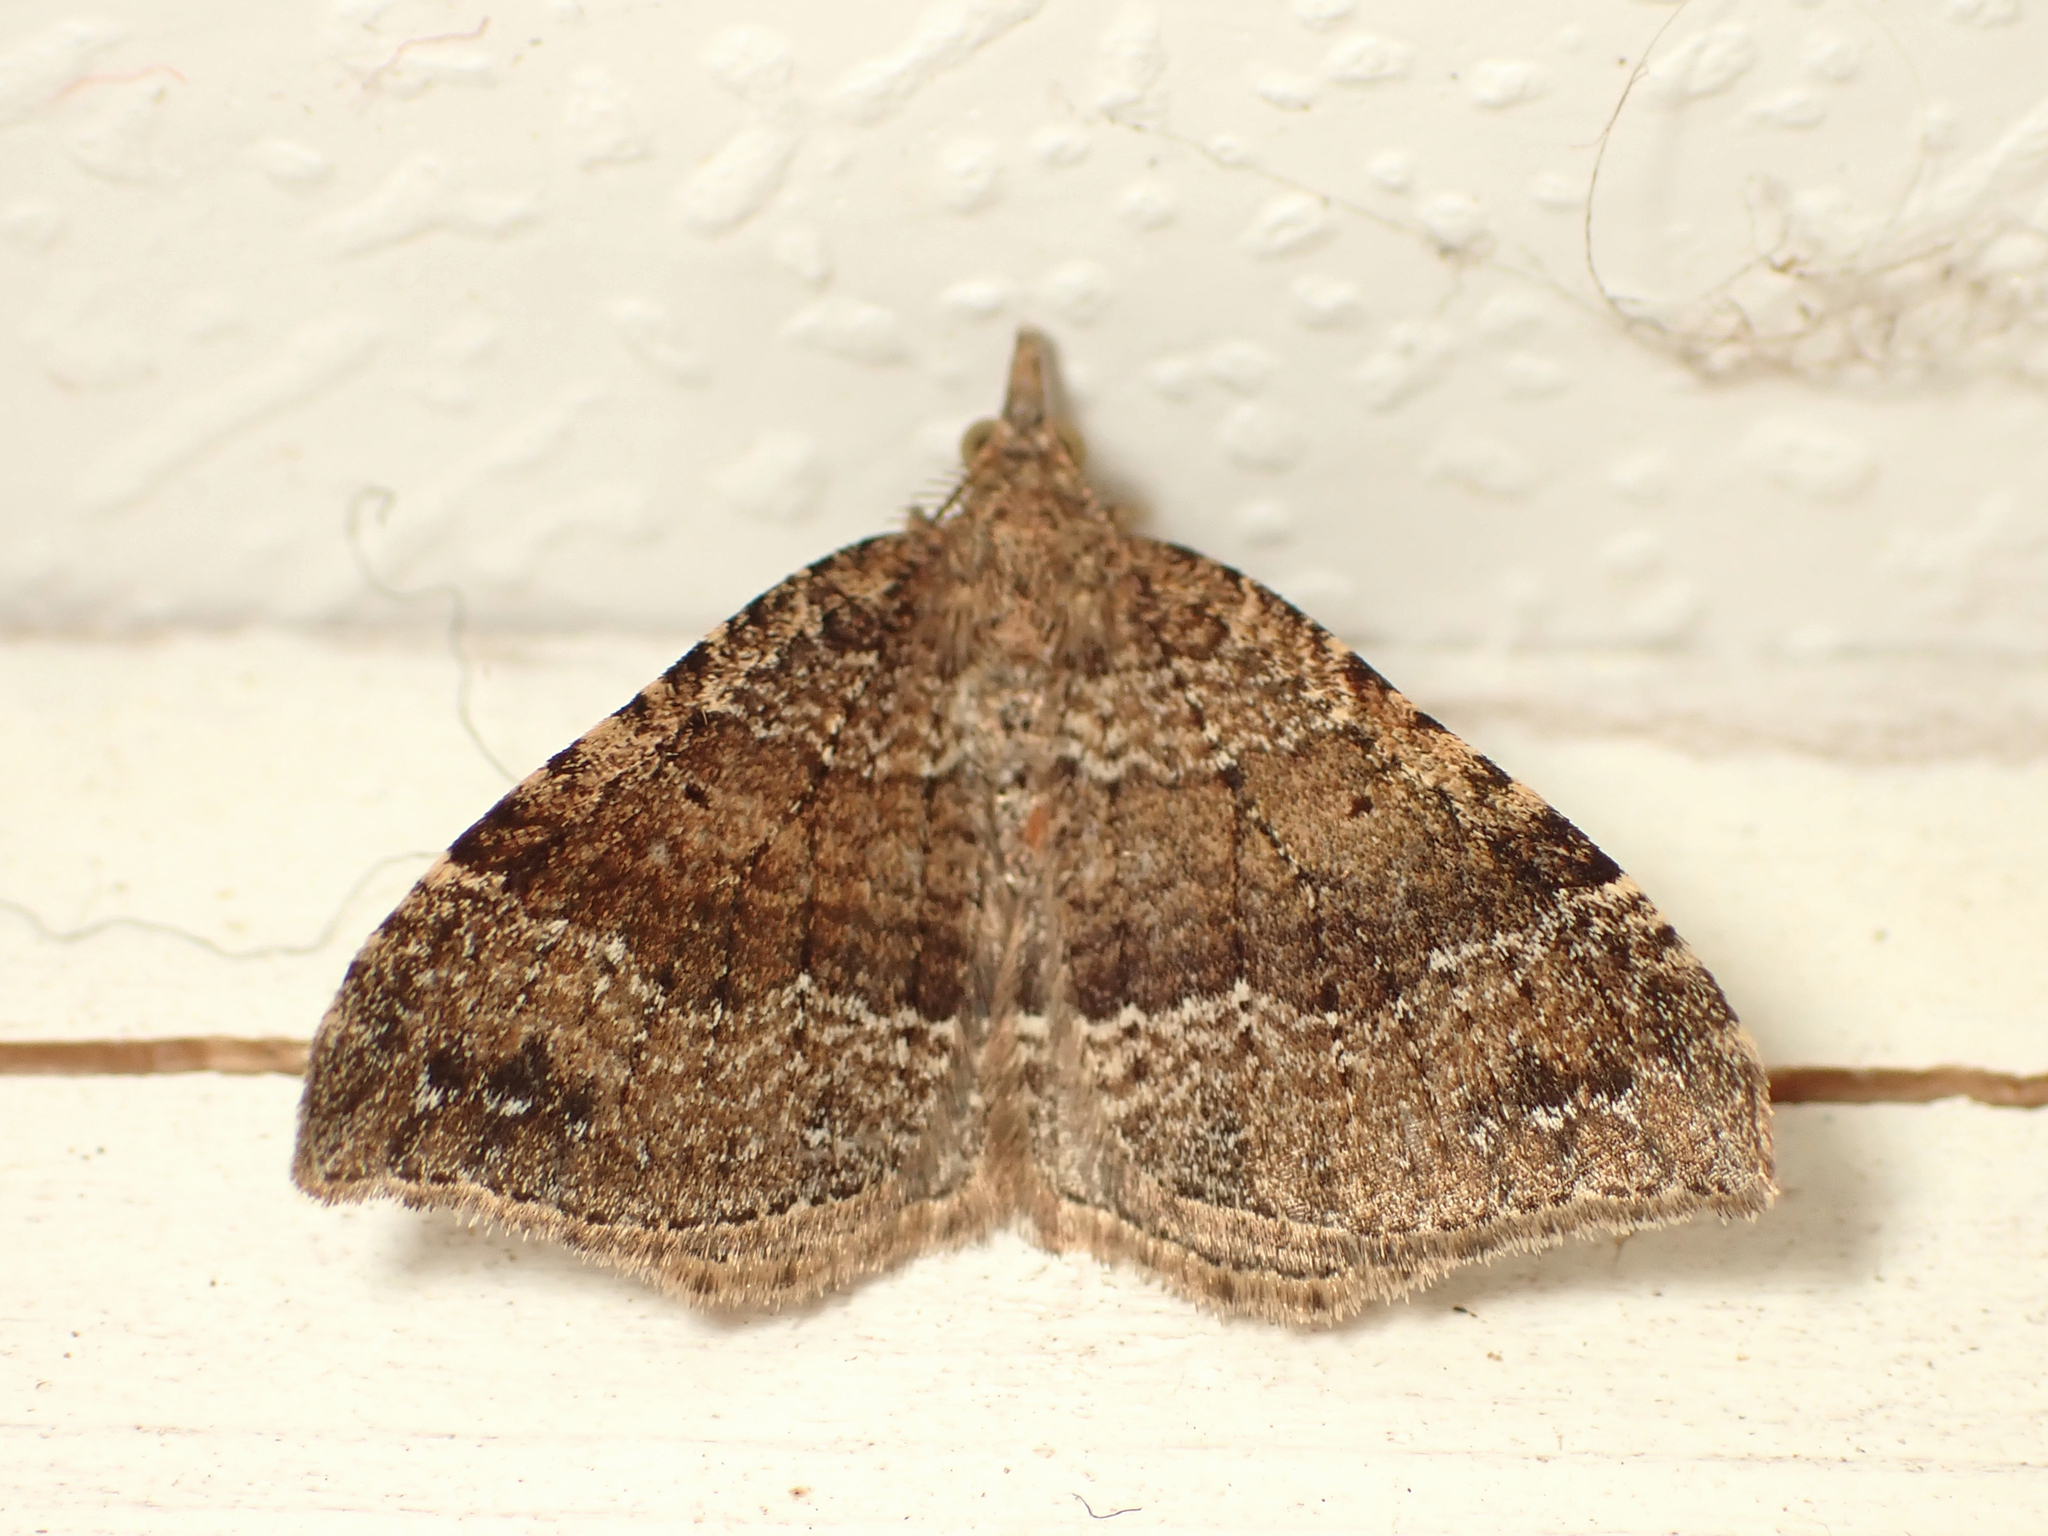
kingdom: Animalia
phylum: Arthropoda
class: Insecta
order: Lepidoptera
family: Geometridae
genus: Homodotis
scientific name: Homodotis falcata
